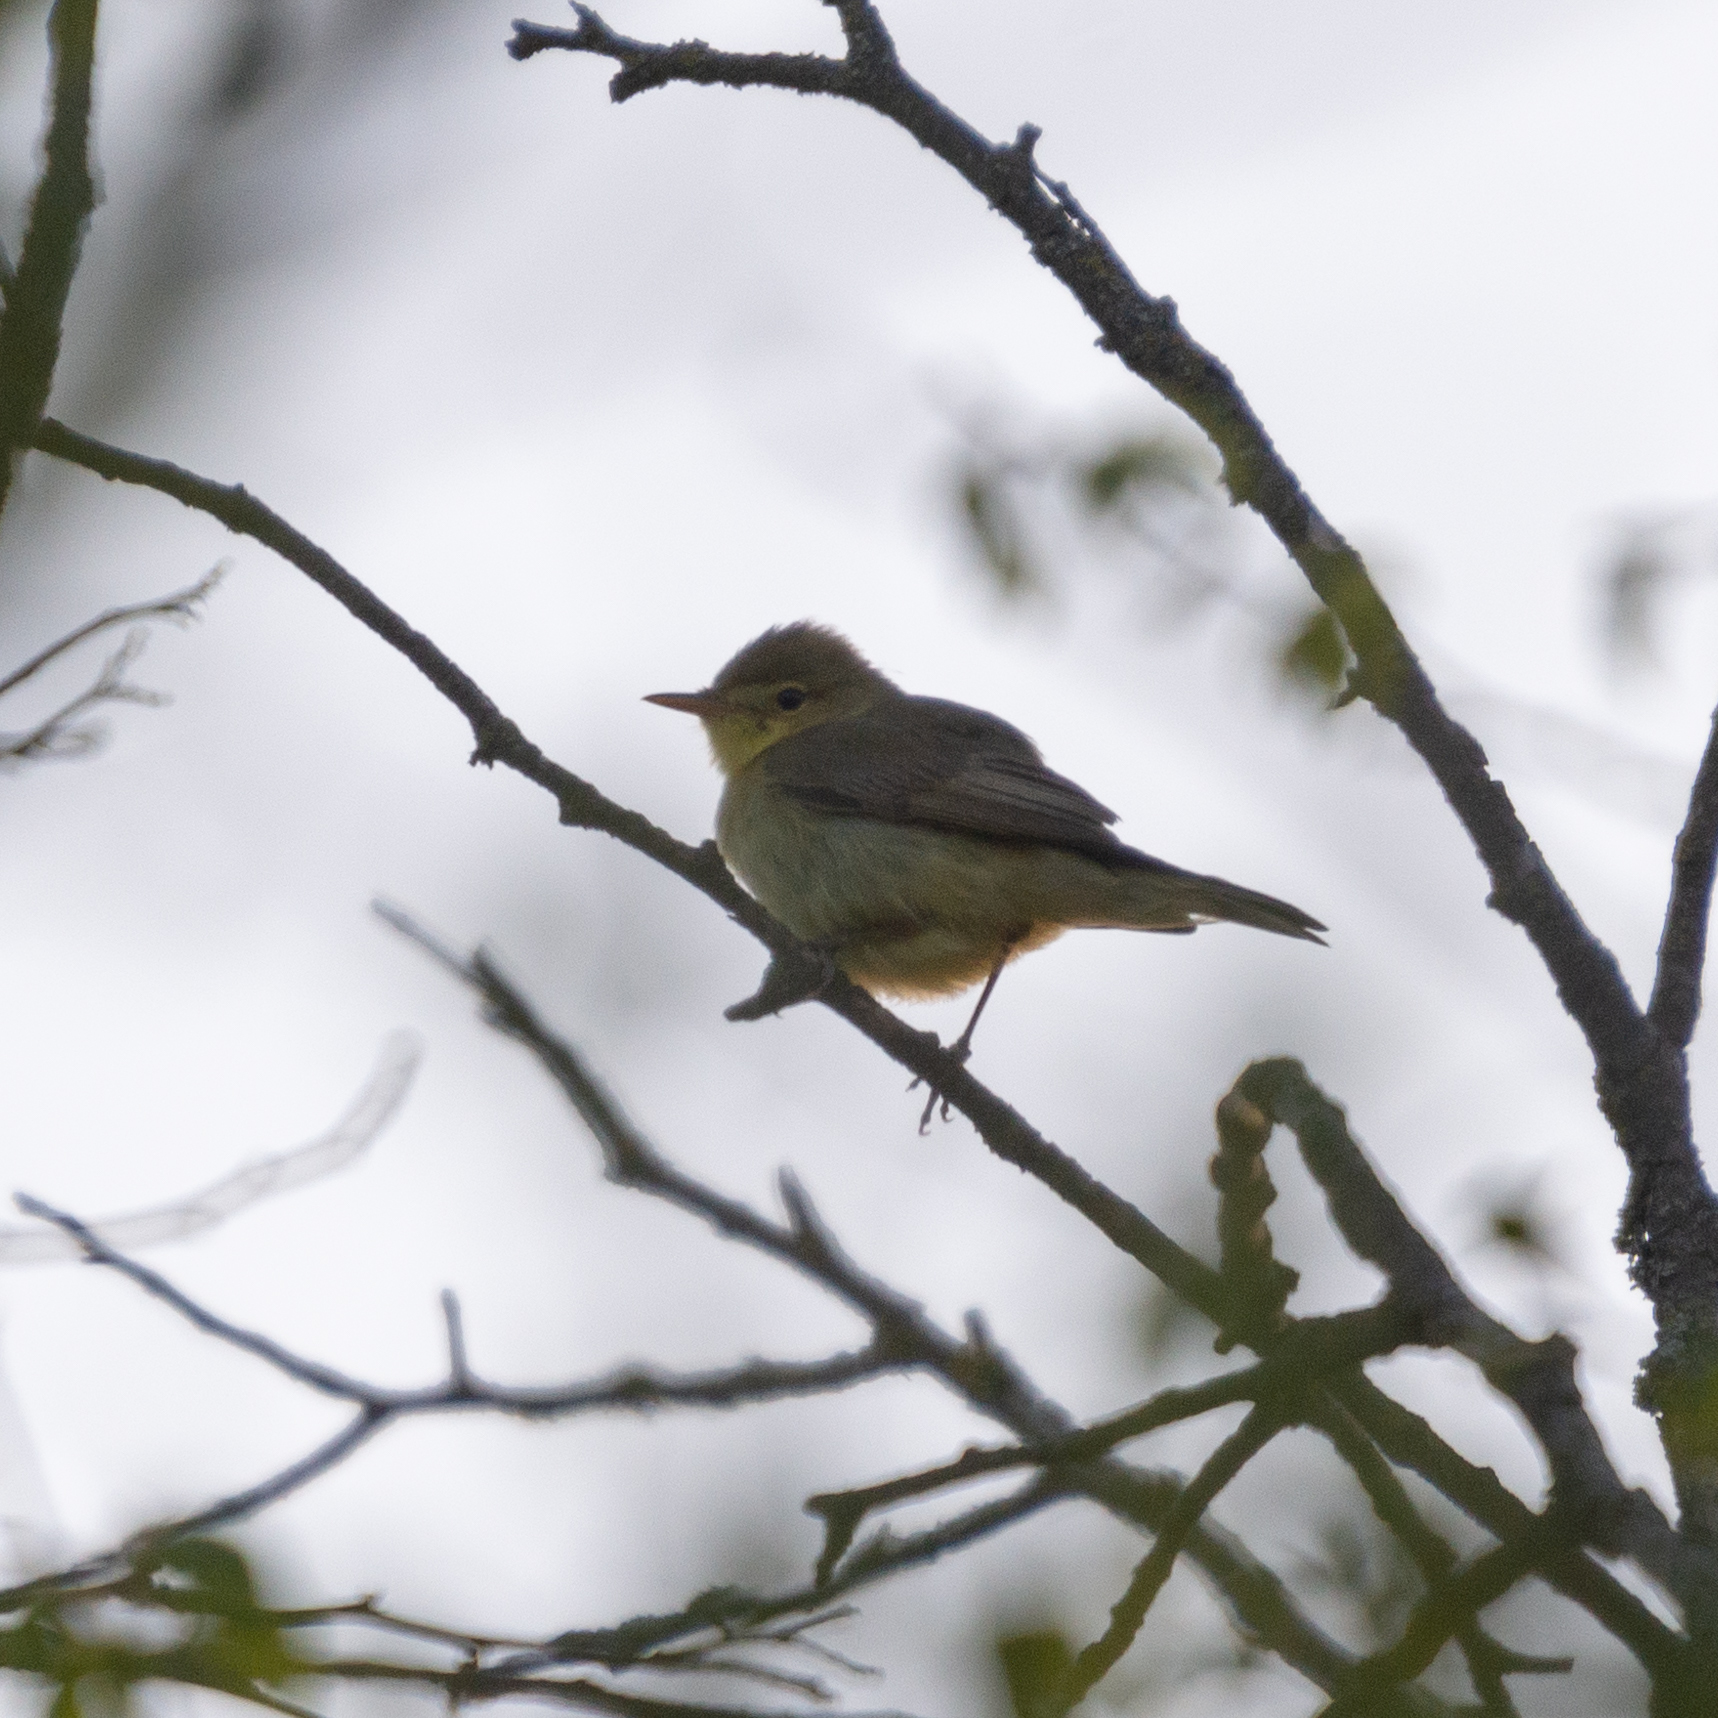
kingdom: Animalia
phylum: Chordata
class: Aves
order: Passeriformes
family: Acrocephalidae
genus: Hippolais
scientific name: Hippolais polyglotta
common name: Melodious warbler
